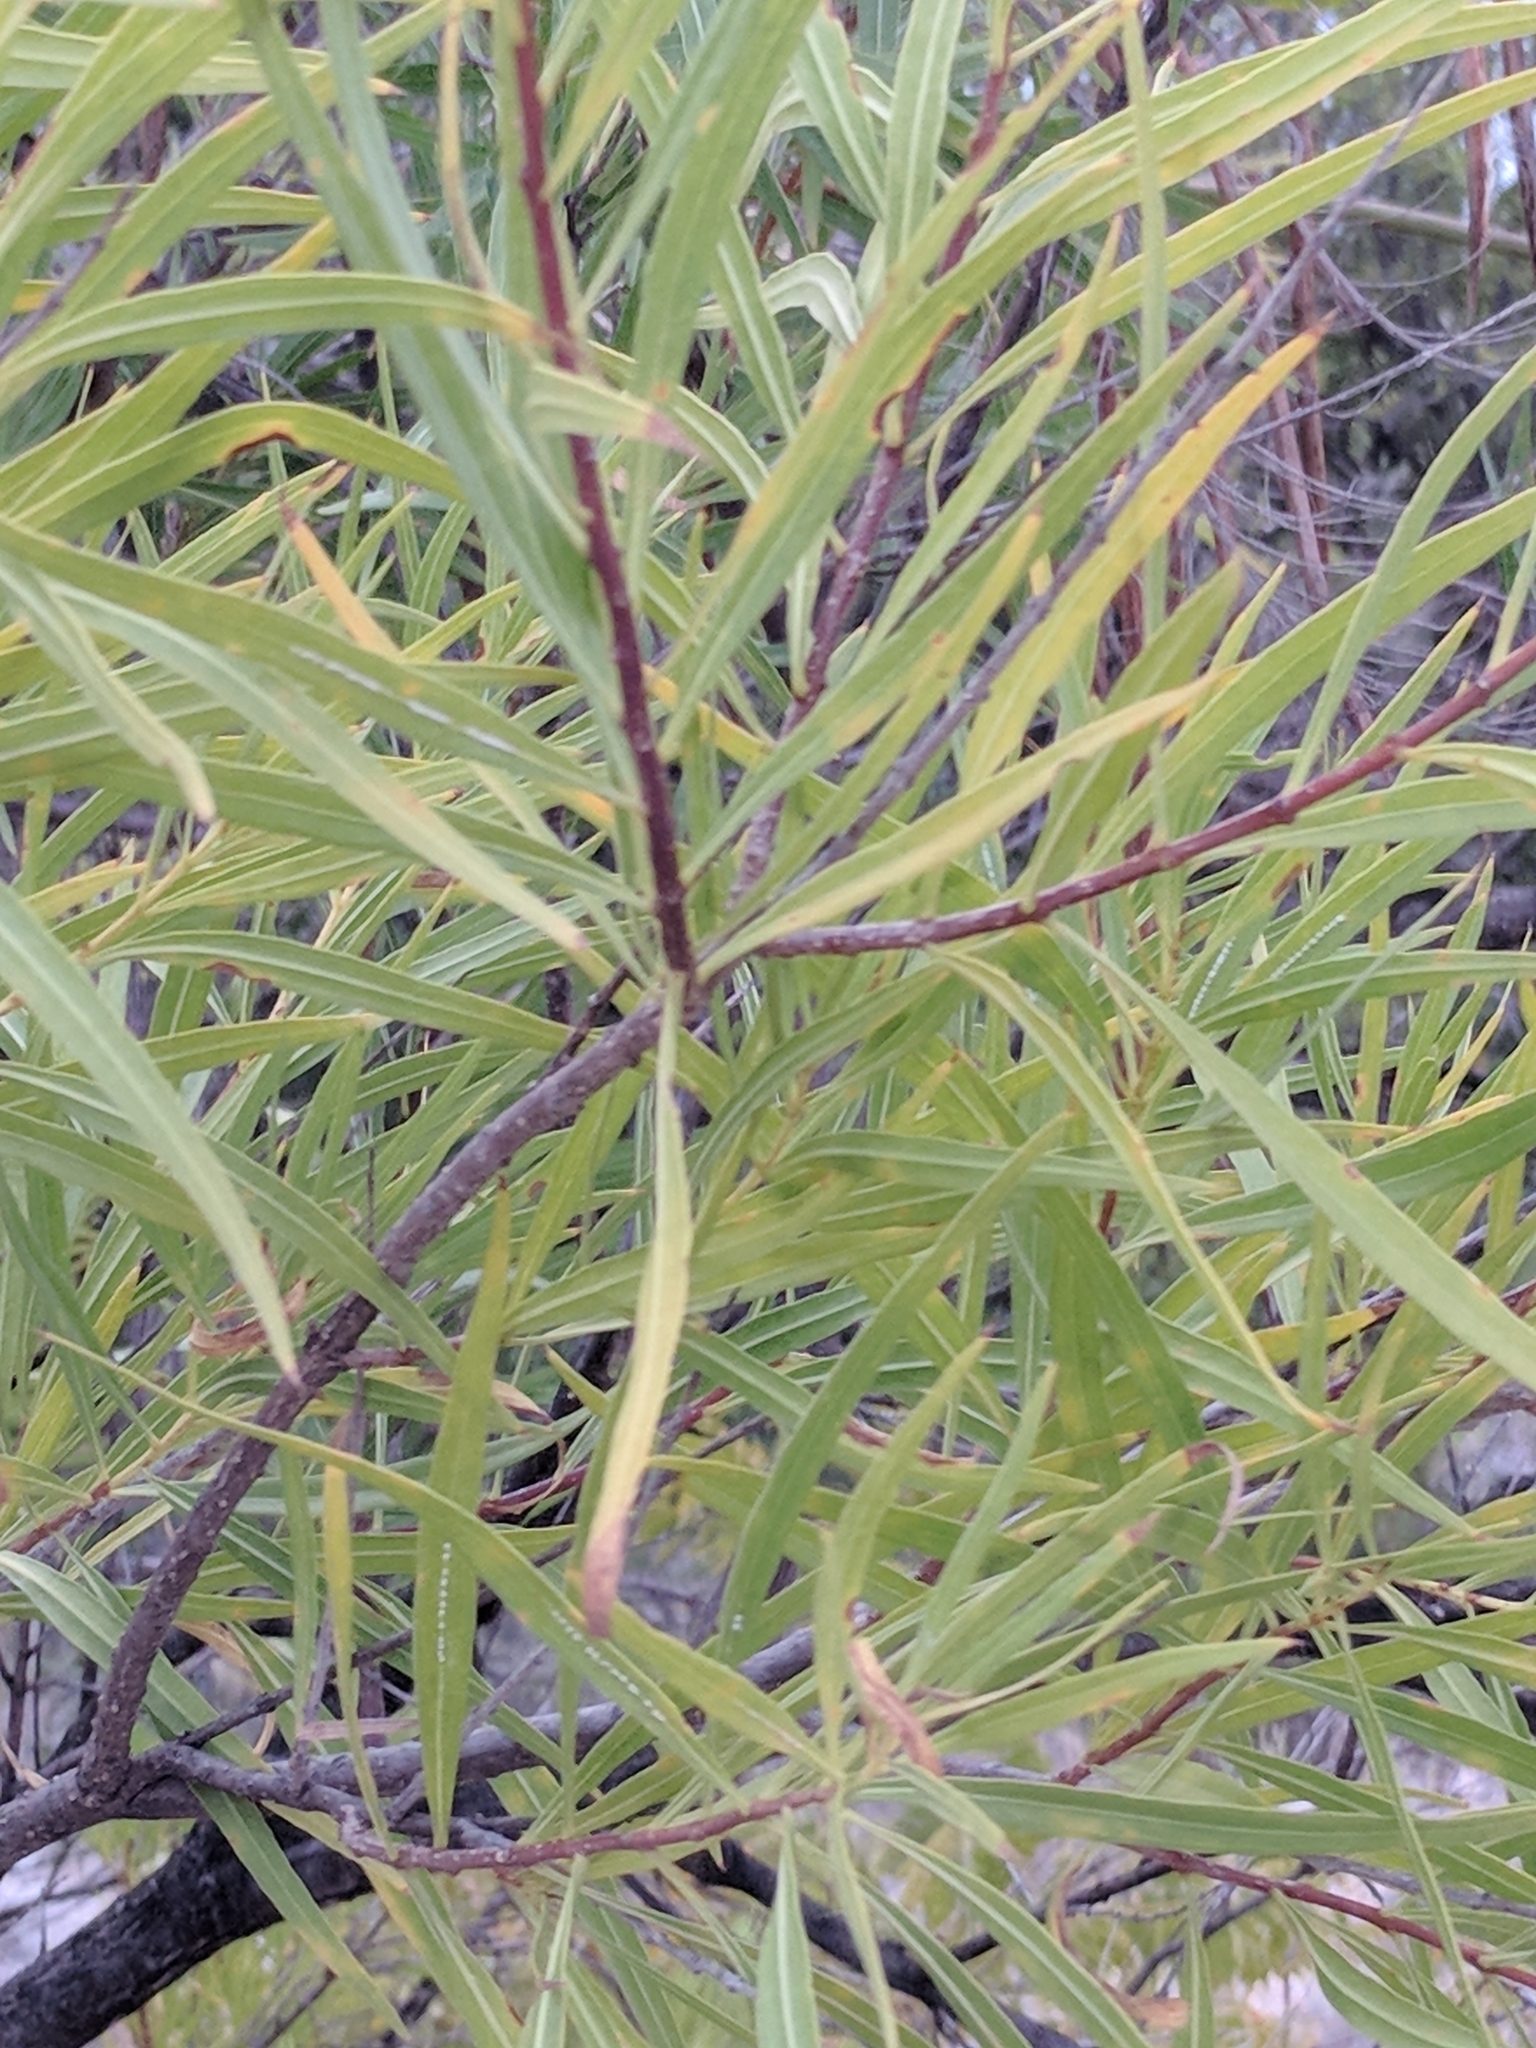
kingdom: Plantae
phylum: Tracheophyta
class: Magnoliopsida
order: Lamiales
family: Bignoniaceae
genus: Chilopsis
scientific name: Chilopsis linearis
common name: Desert-willow
